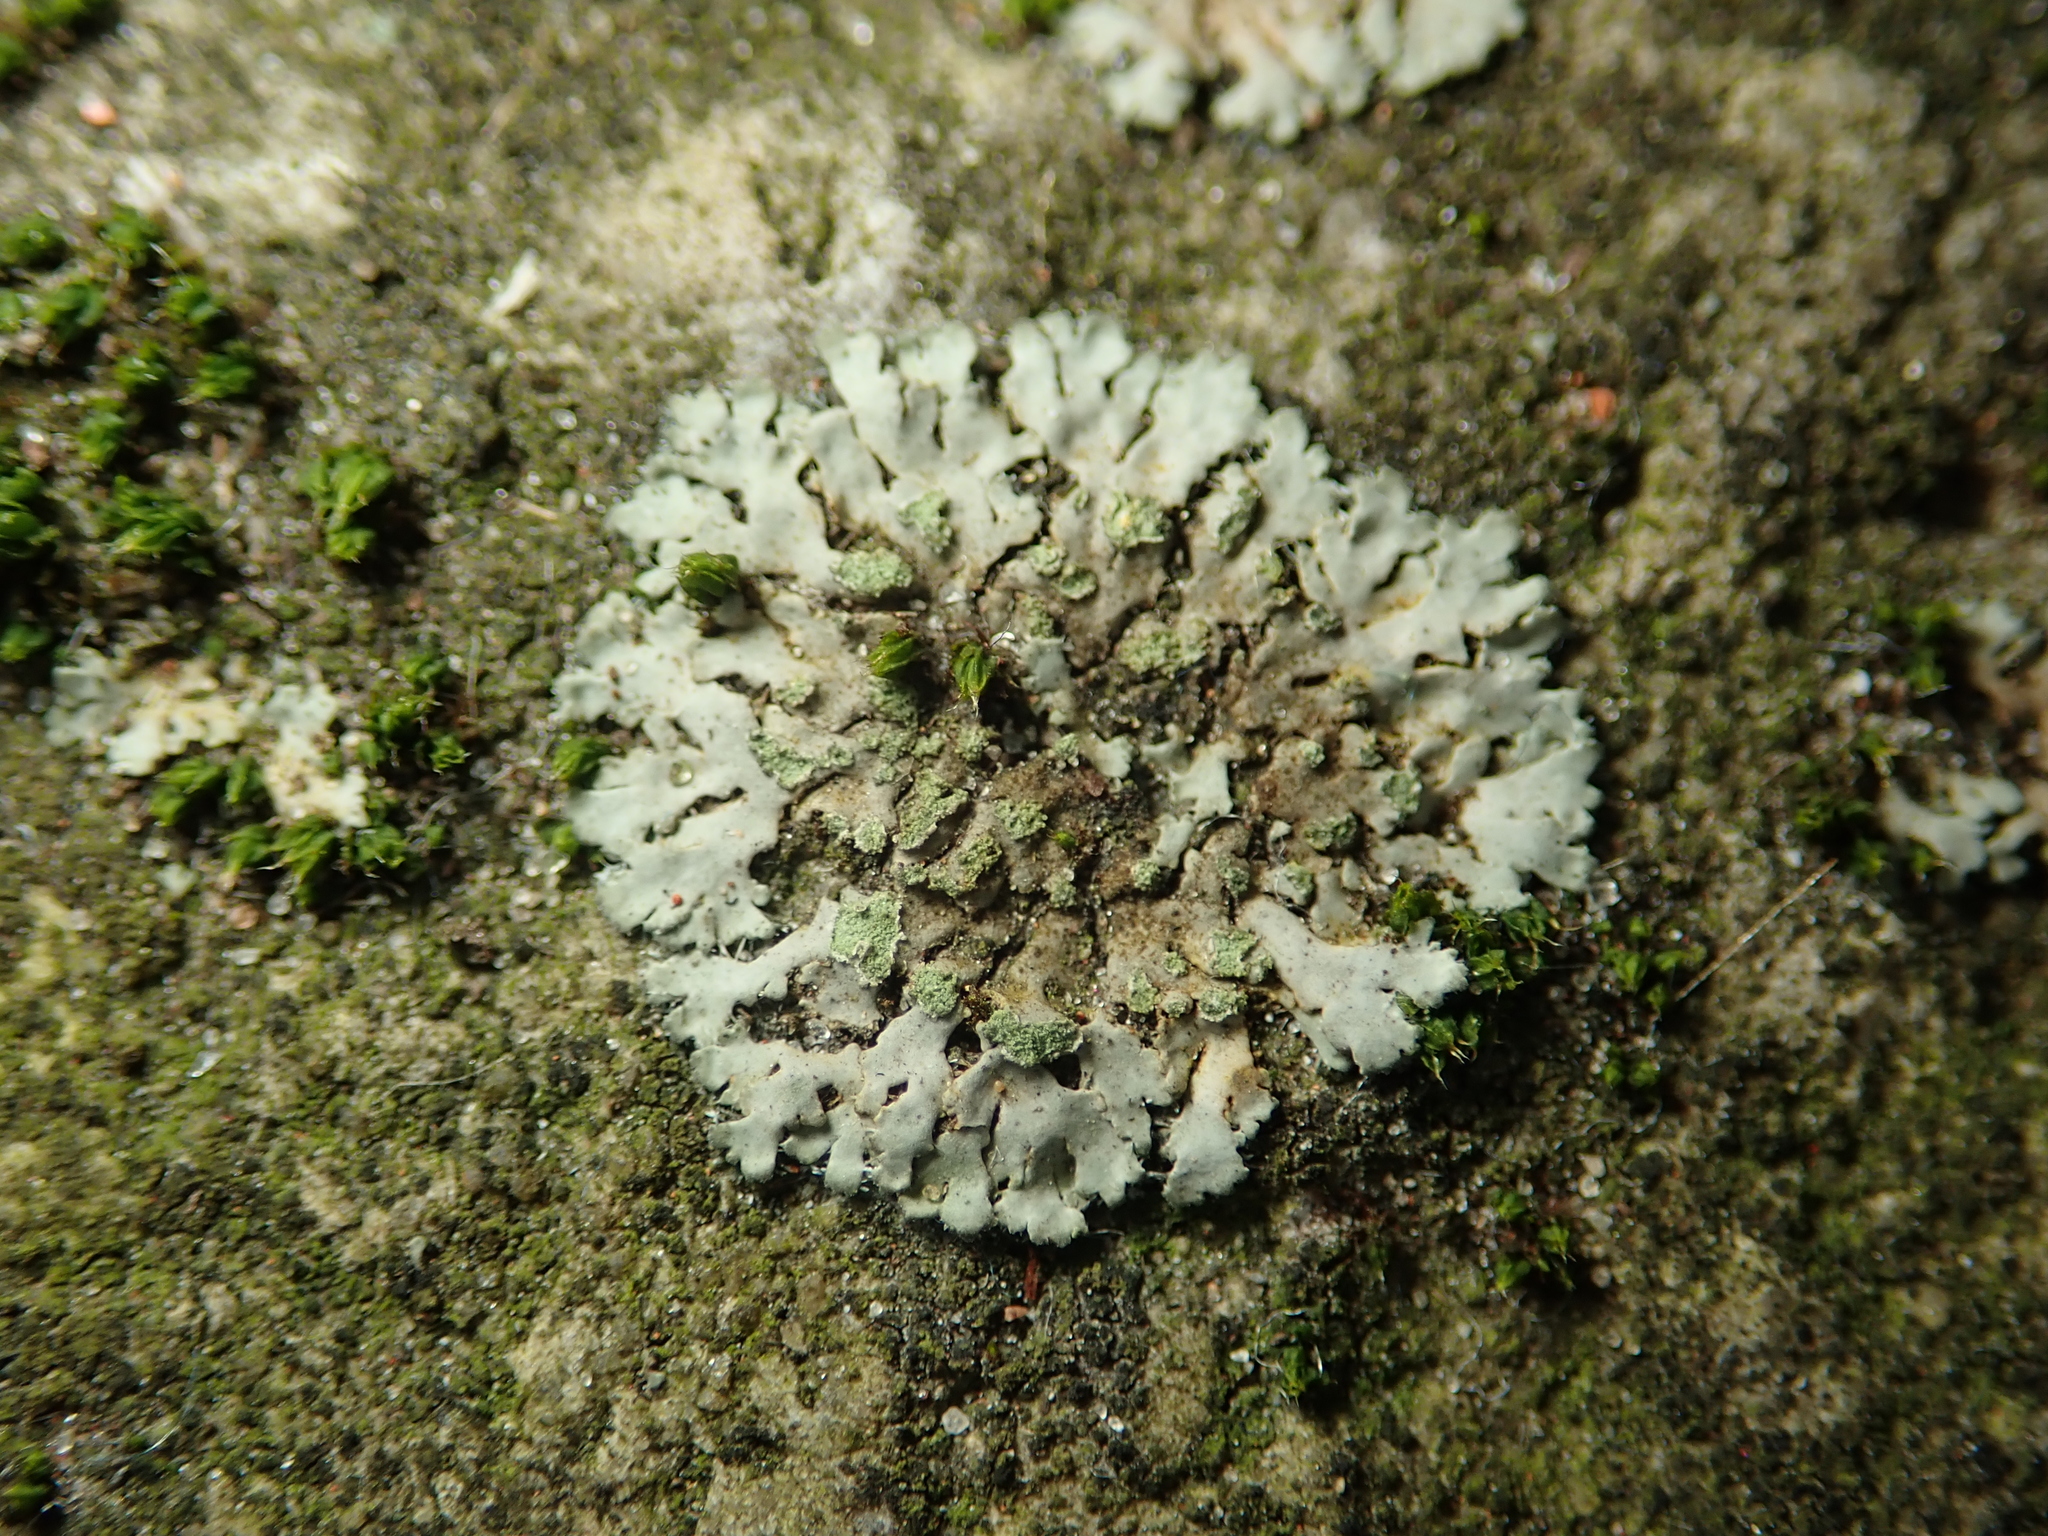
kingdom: Fungi
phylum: Ascomycota
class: Lecanoromycetes
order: Caliciales
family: Physciaceae
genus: Phaeophyscia
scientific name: Phaeophyscia orbicularis
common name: Mealy shadow lichen
